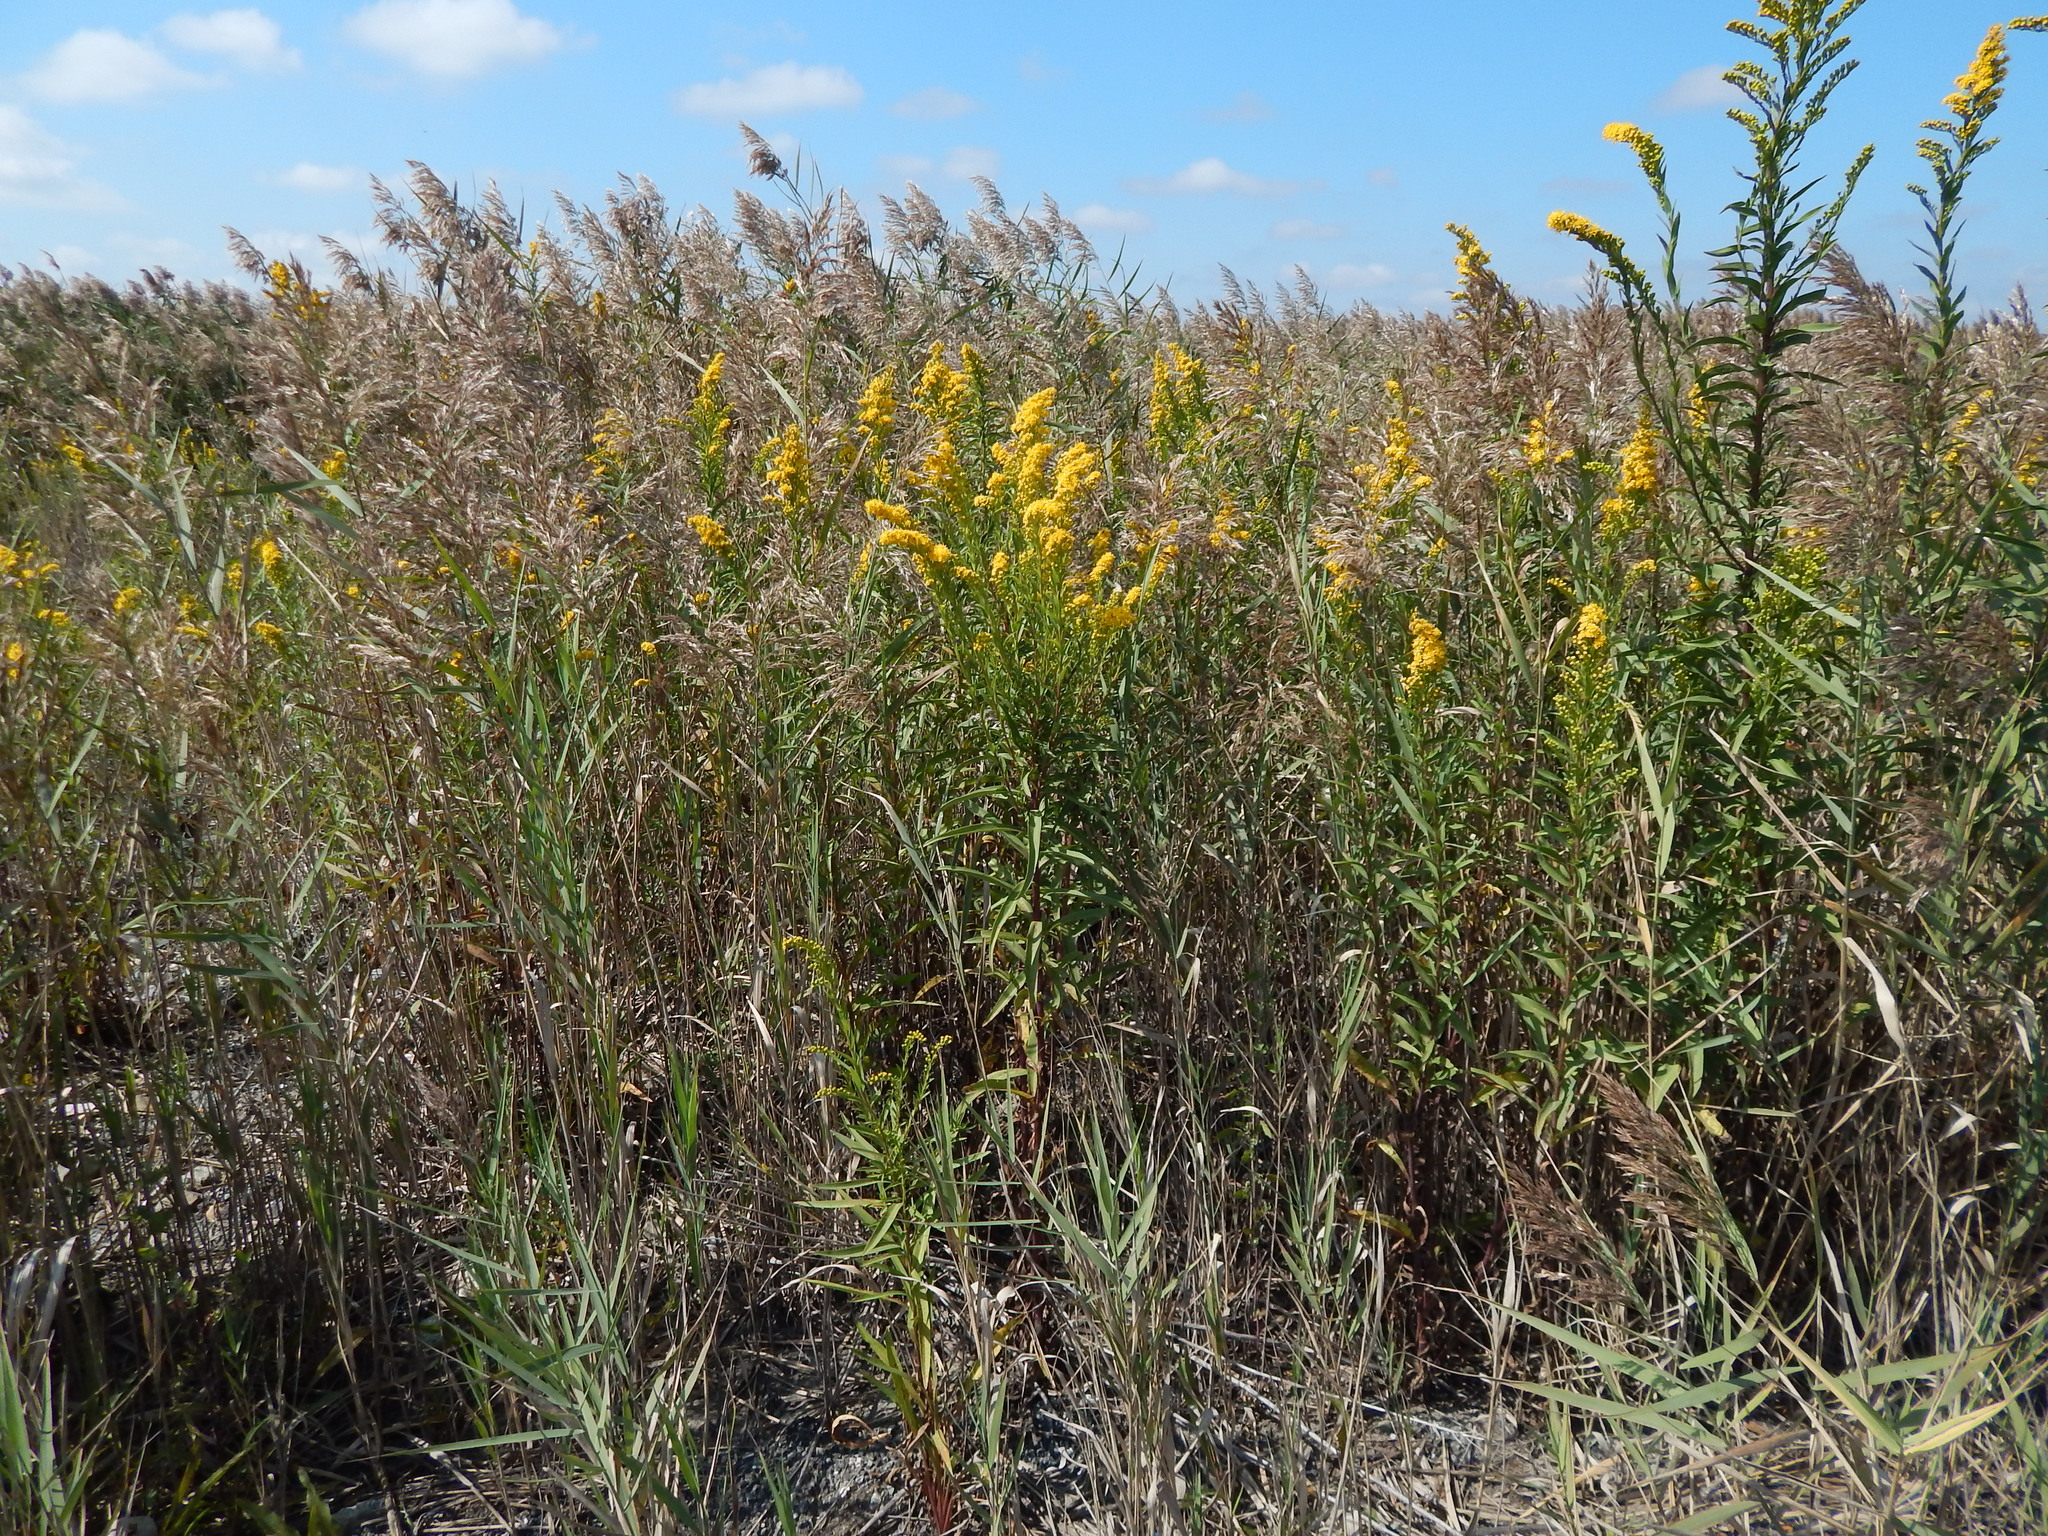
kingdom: Plantae
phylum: Tracheophyta
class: Magnoliopsida
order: Asterales
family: Asteraceae
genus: Solidago
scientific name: Solidago sempervirens
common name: Salt-marsh goldenrod
